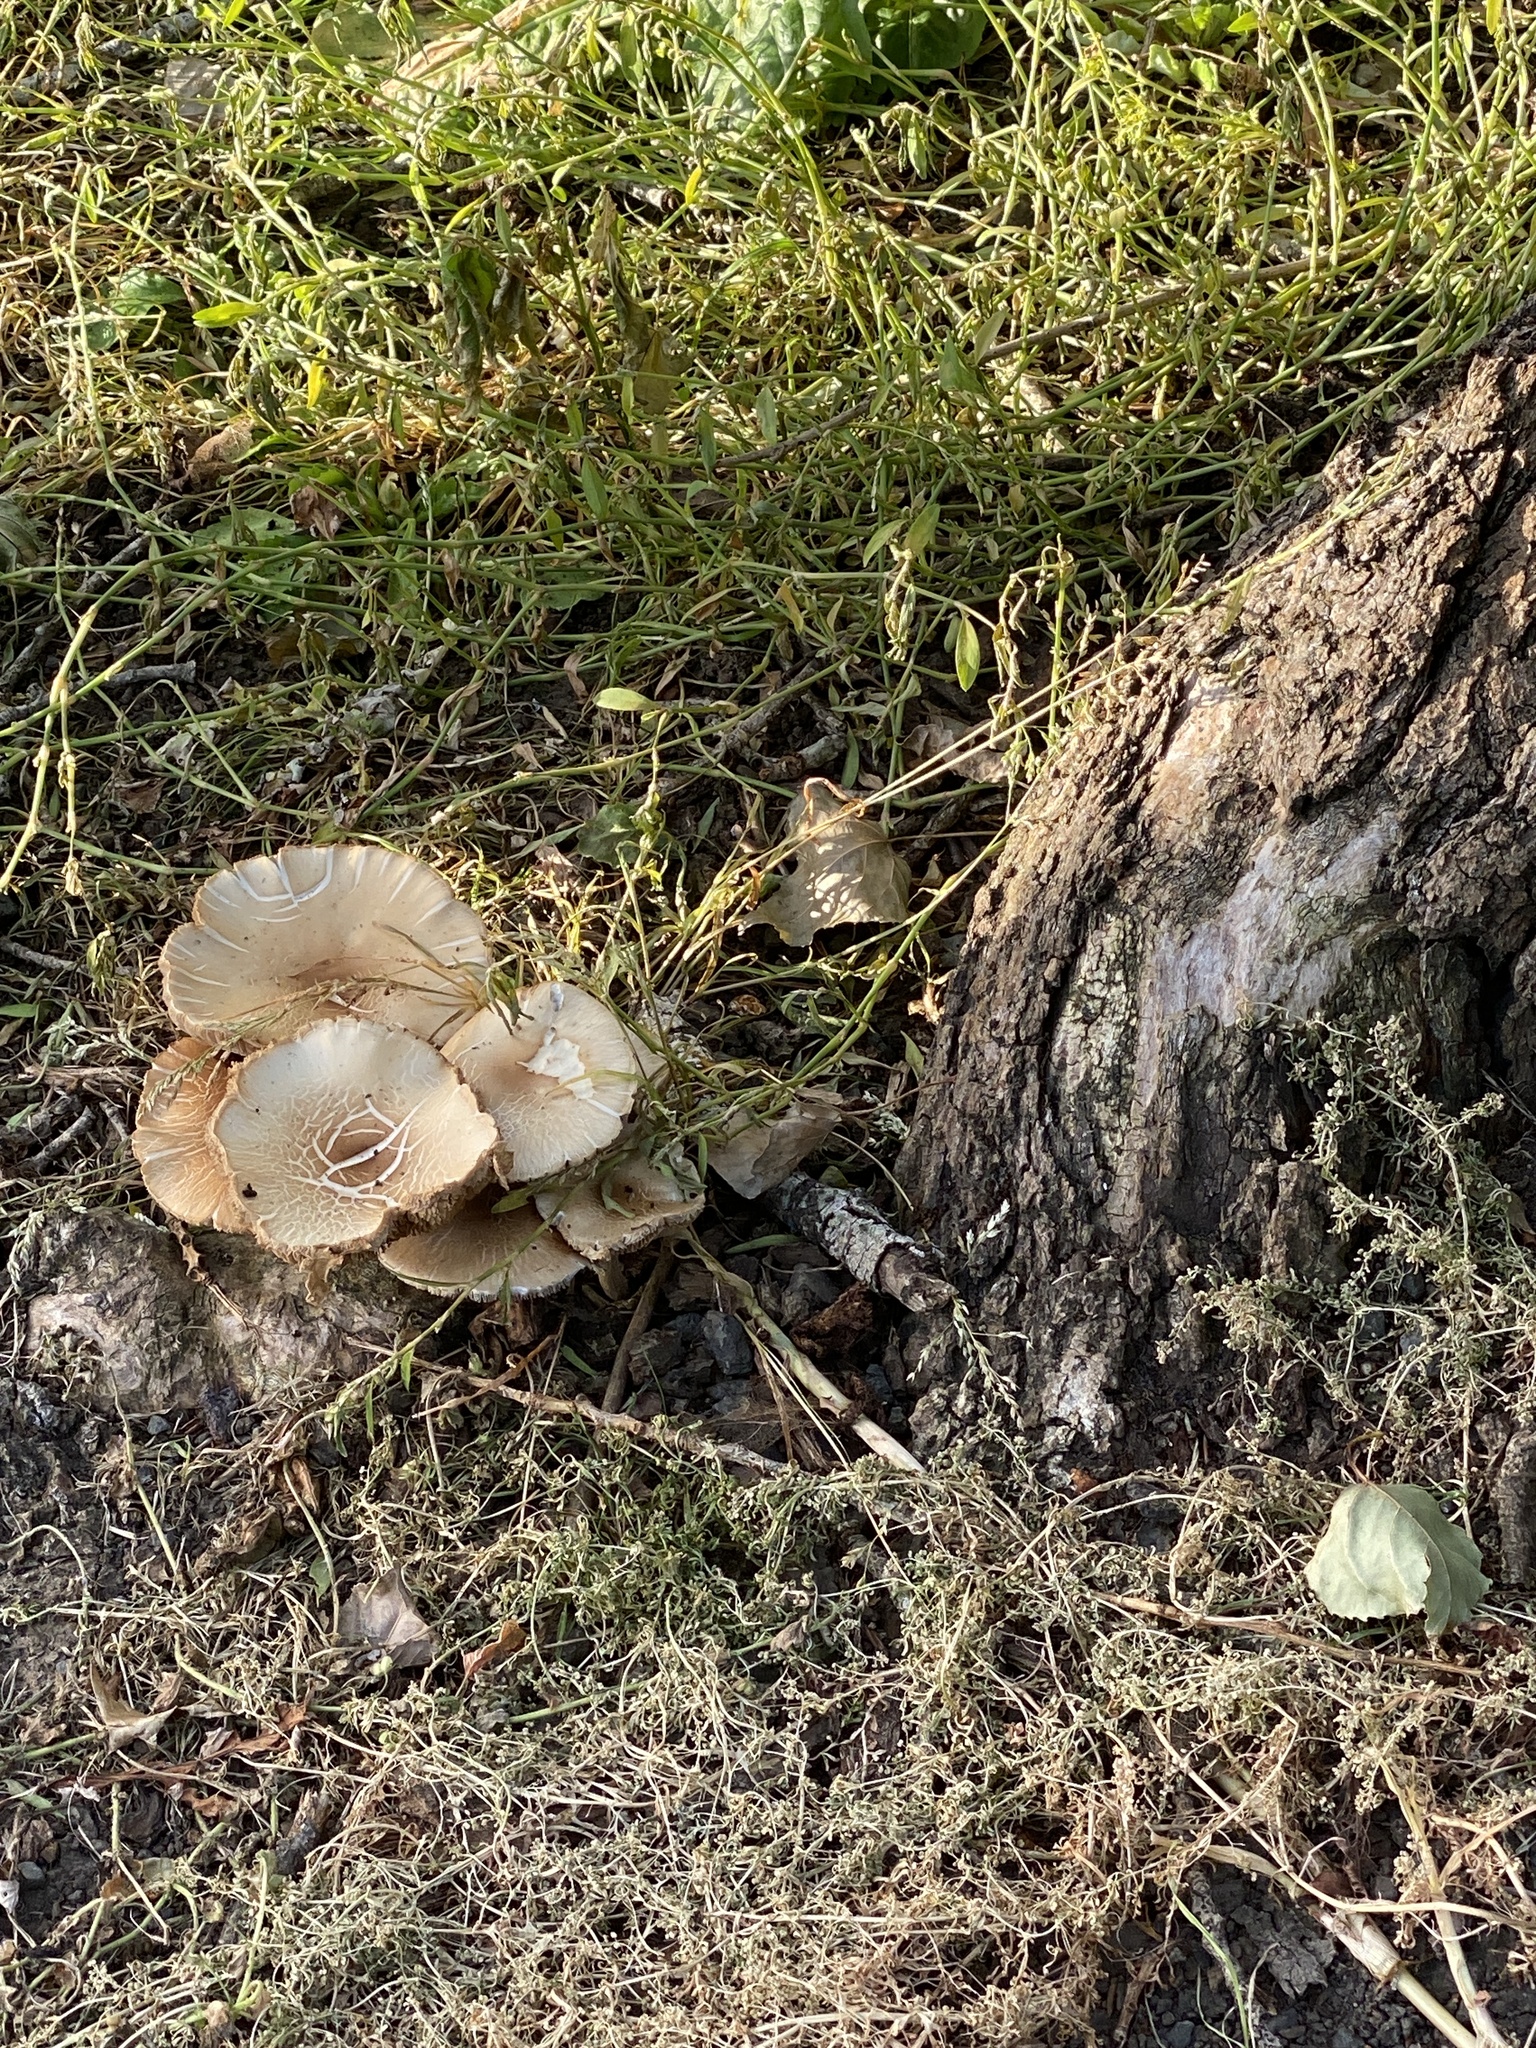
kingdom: Fungi
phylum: Basidiomycota
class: Agaricomycetes
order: Agaricales
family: Tubariaceae
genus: Cyclocybe
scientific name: Cyclocybe parasitica
